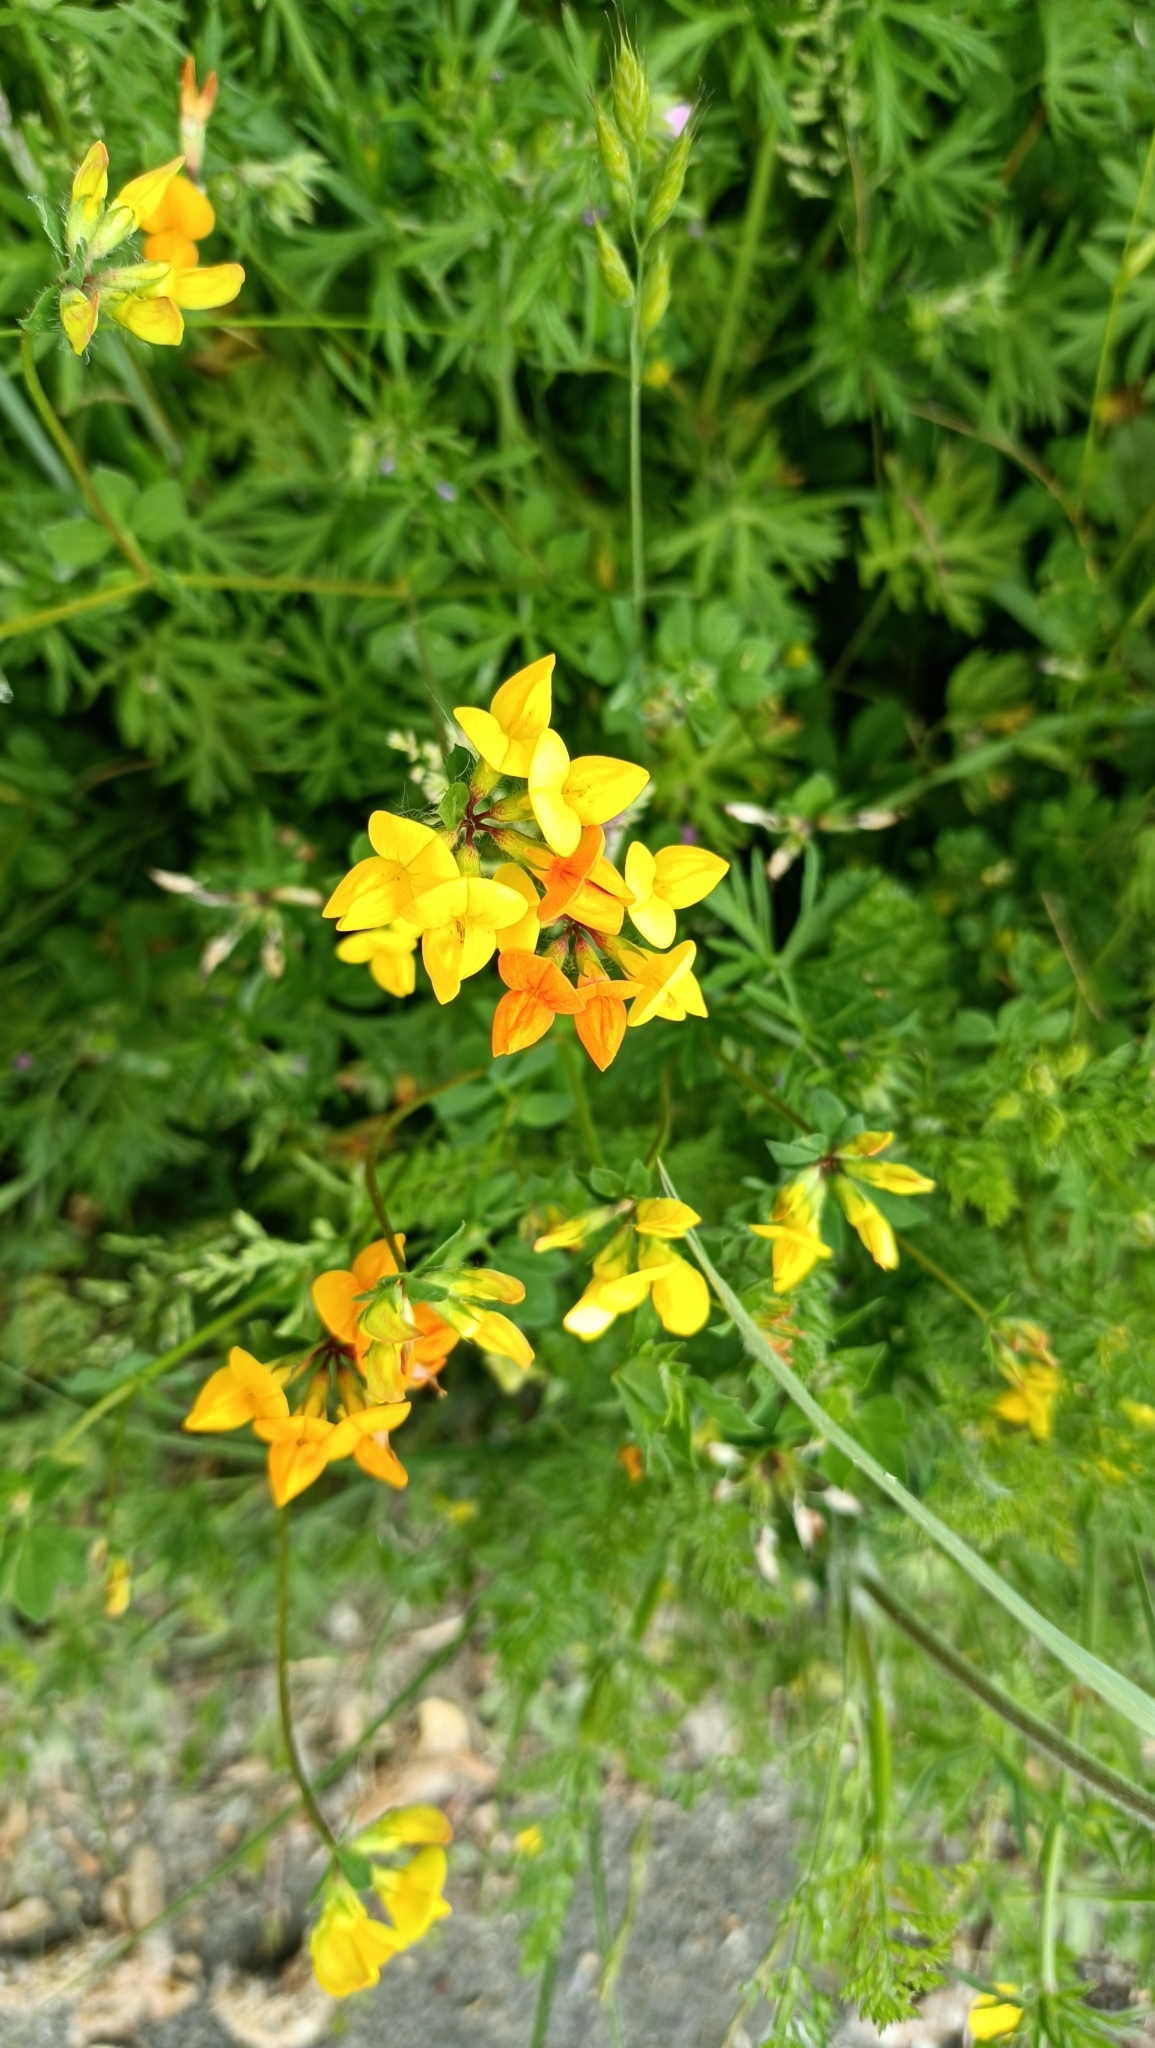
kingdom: Plantae
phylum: Tracheophyta
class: Magnoliopsida
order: Fabales
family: Fabaceae
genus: Lotus
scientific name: Lotus corniculatus
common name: Common bird's-foot-trefoil
